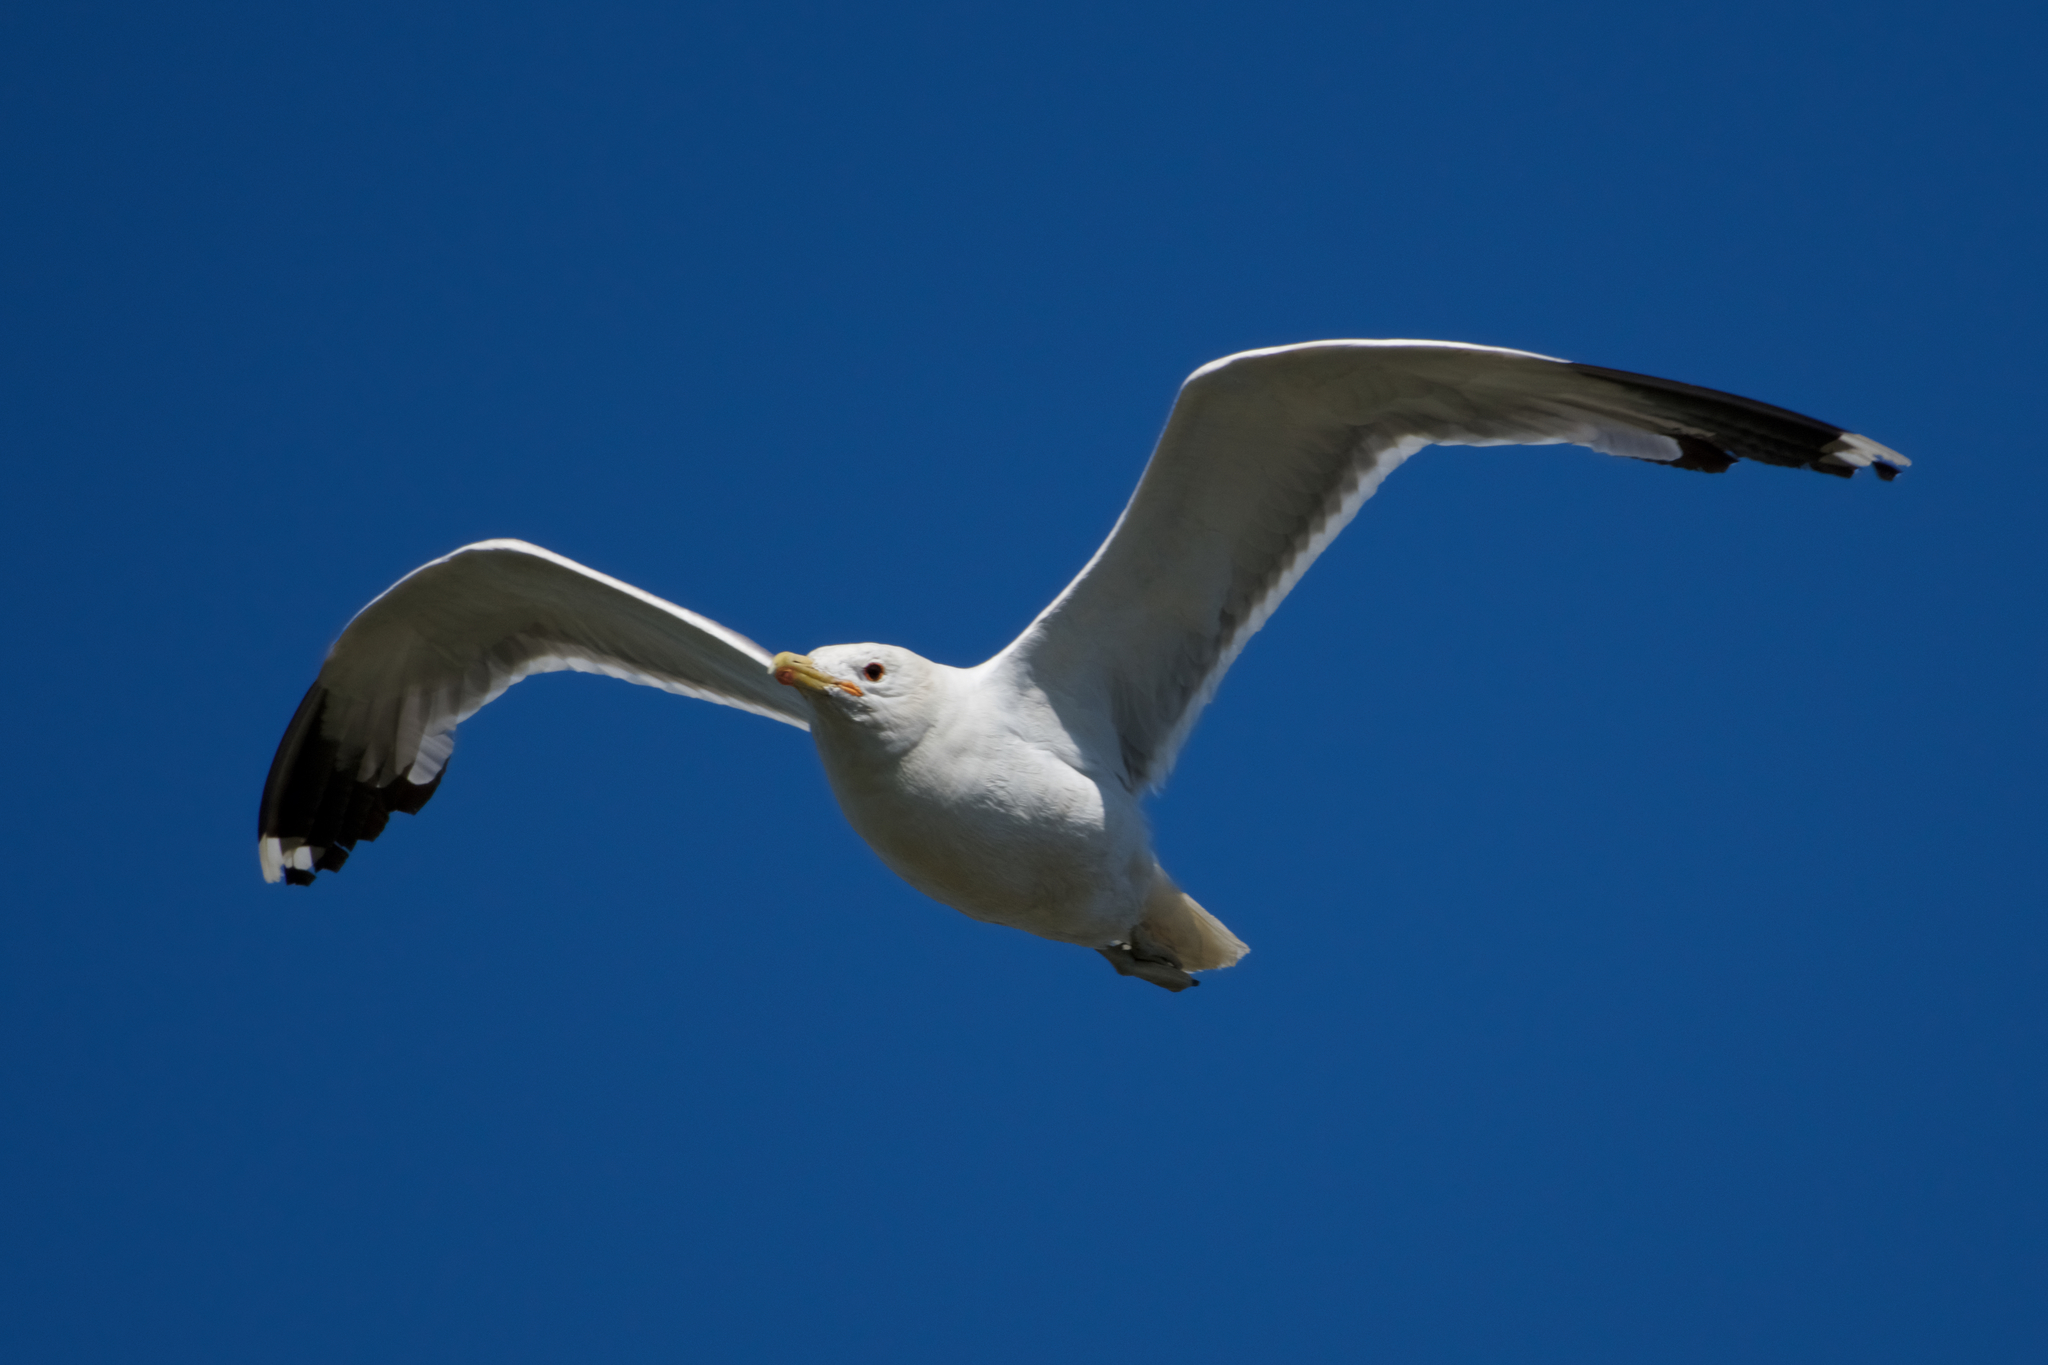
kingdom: Animalia
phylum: Chordata
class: Aves
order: Charadriiformes
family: Laridae
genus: Larus
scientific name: Larus californicus
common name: California gull
